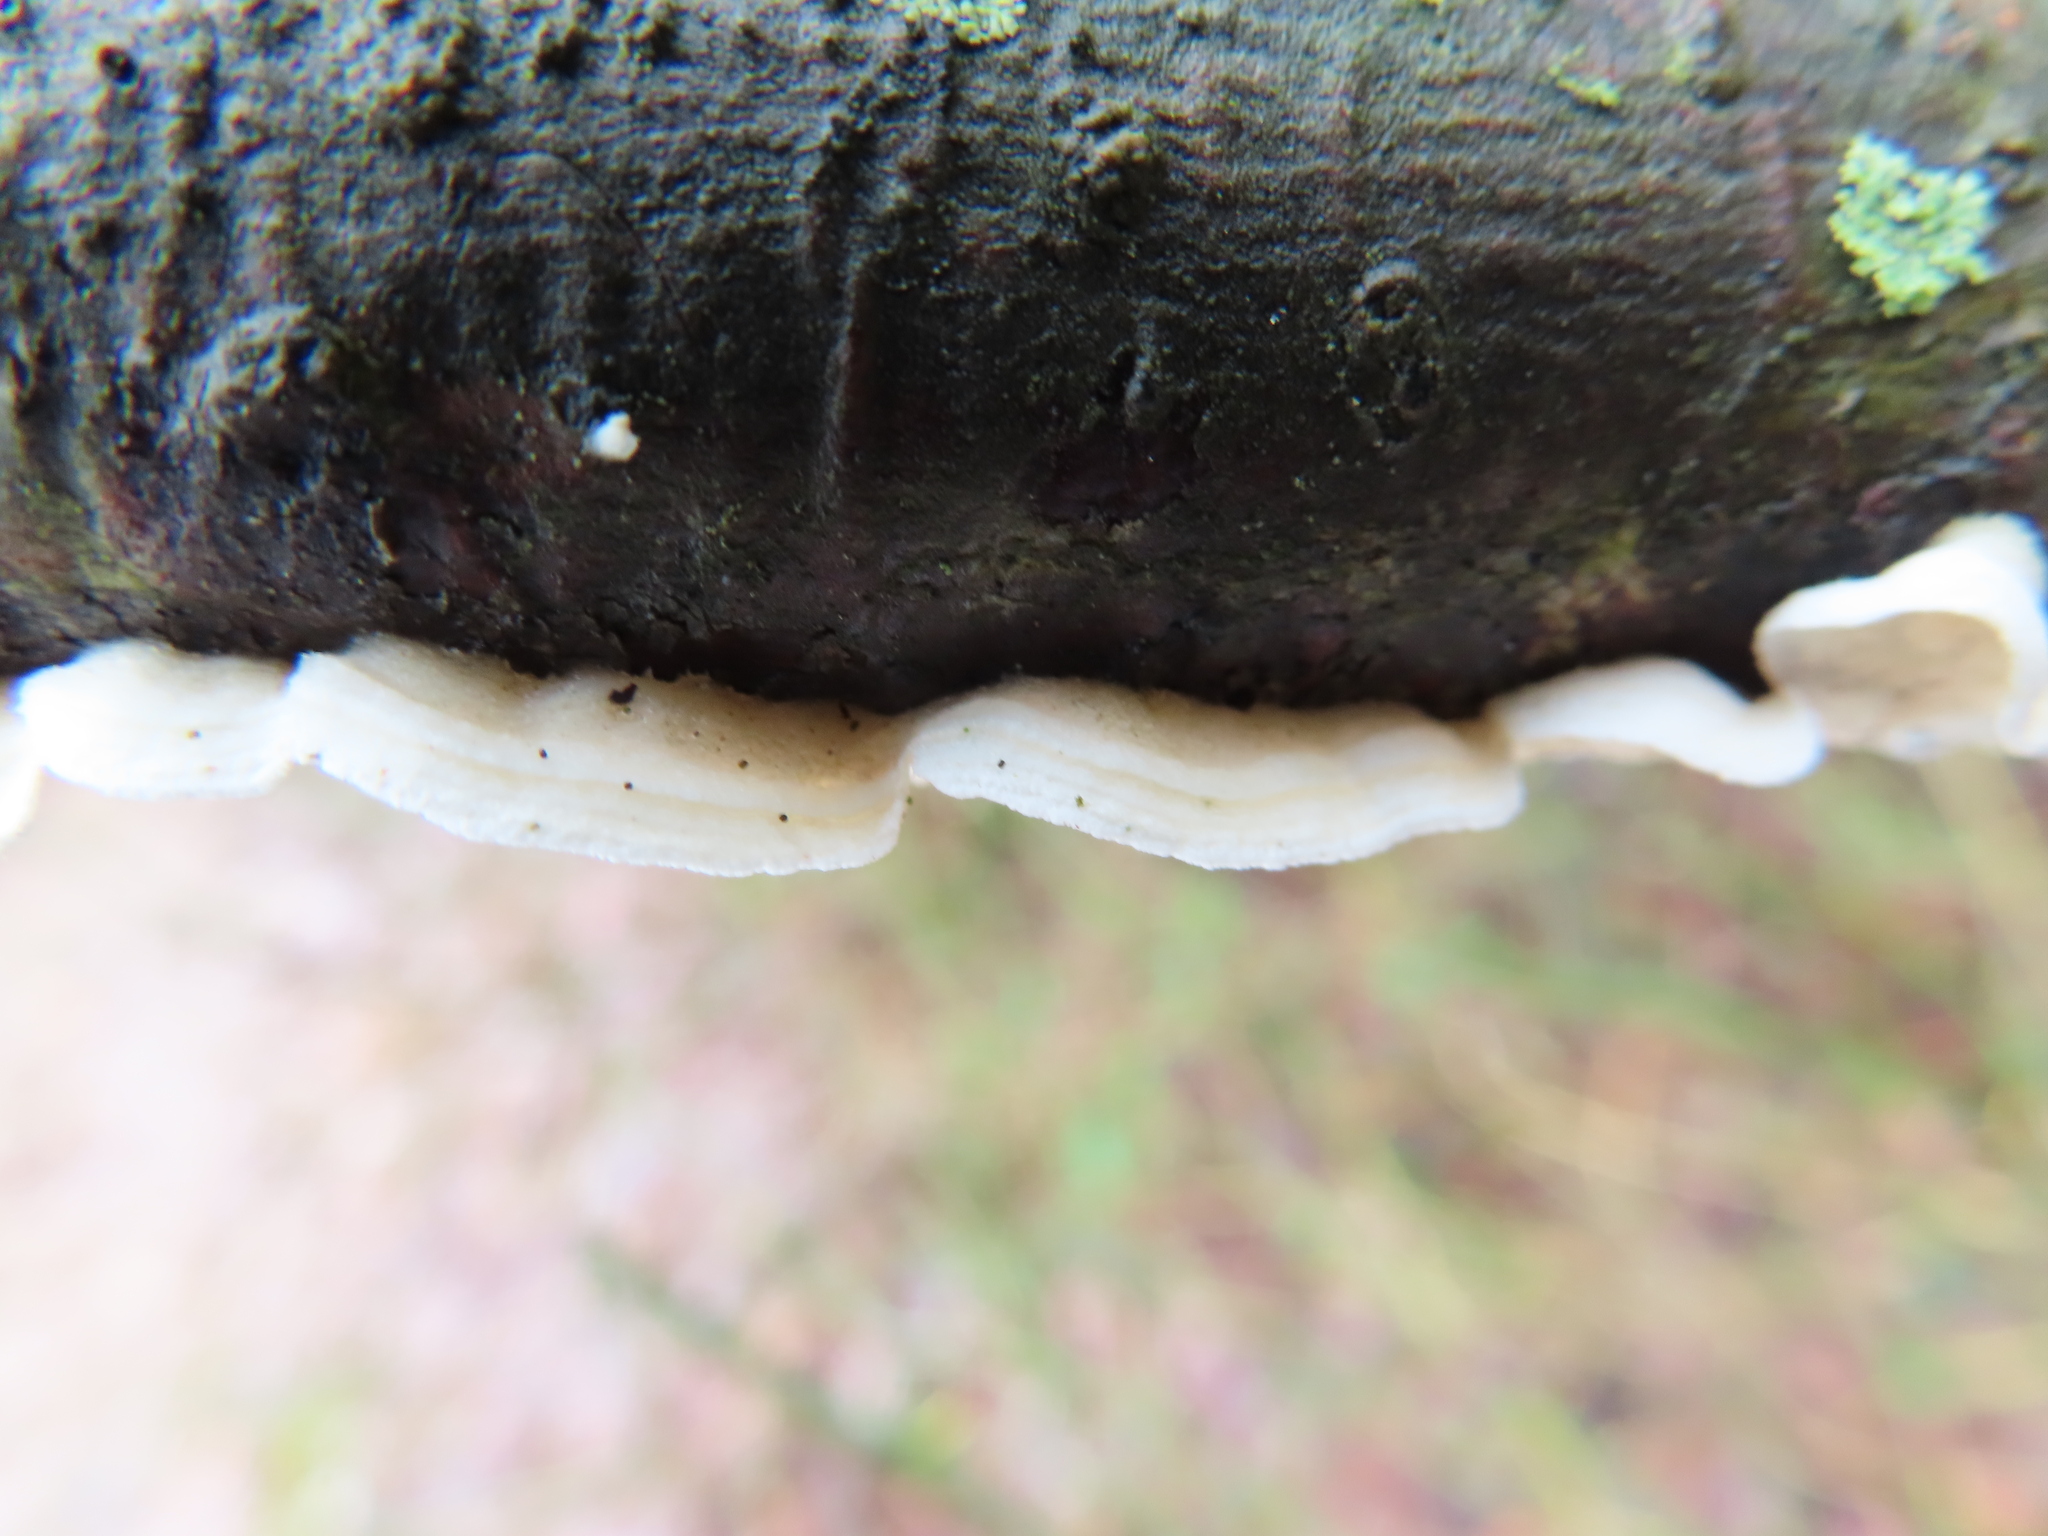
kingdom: Fungi
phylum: Basidiomycota
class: Agaricomycetes
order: Polyporales
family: Irpicaceae
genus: Byssomerulius
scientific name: Byssomerulius corium
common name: Netted crust
